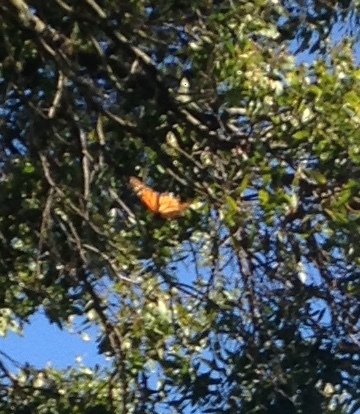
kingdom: Animalia
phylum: Arthropoda
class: Insecta
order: Lepidoptera
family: Nymphalidae
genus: Danaus
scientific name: Danaus plexippus
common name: Monarch
